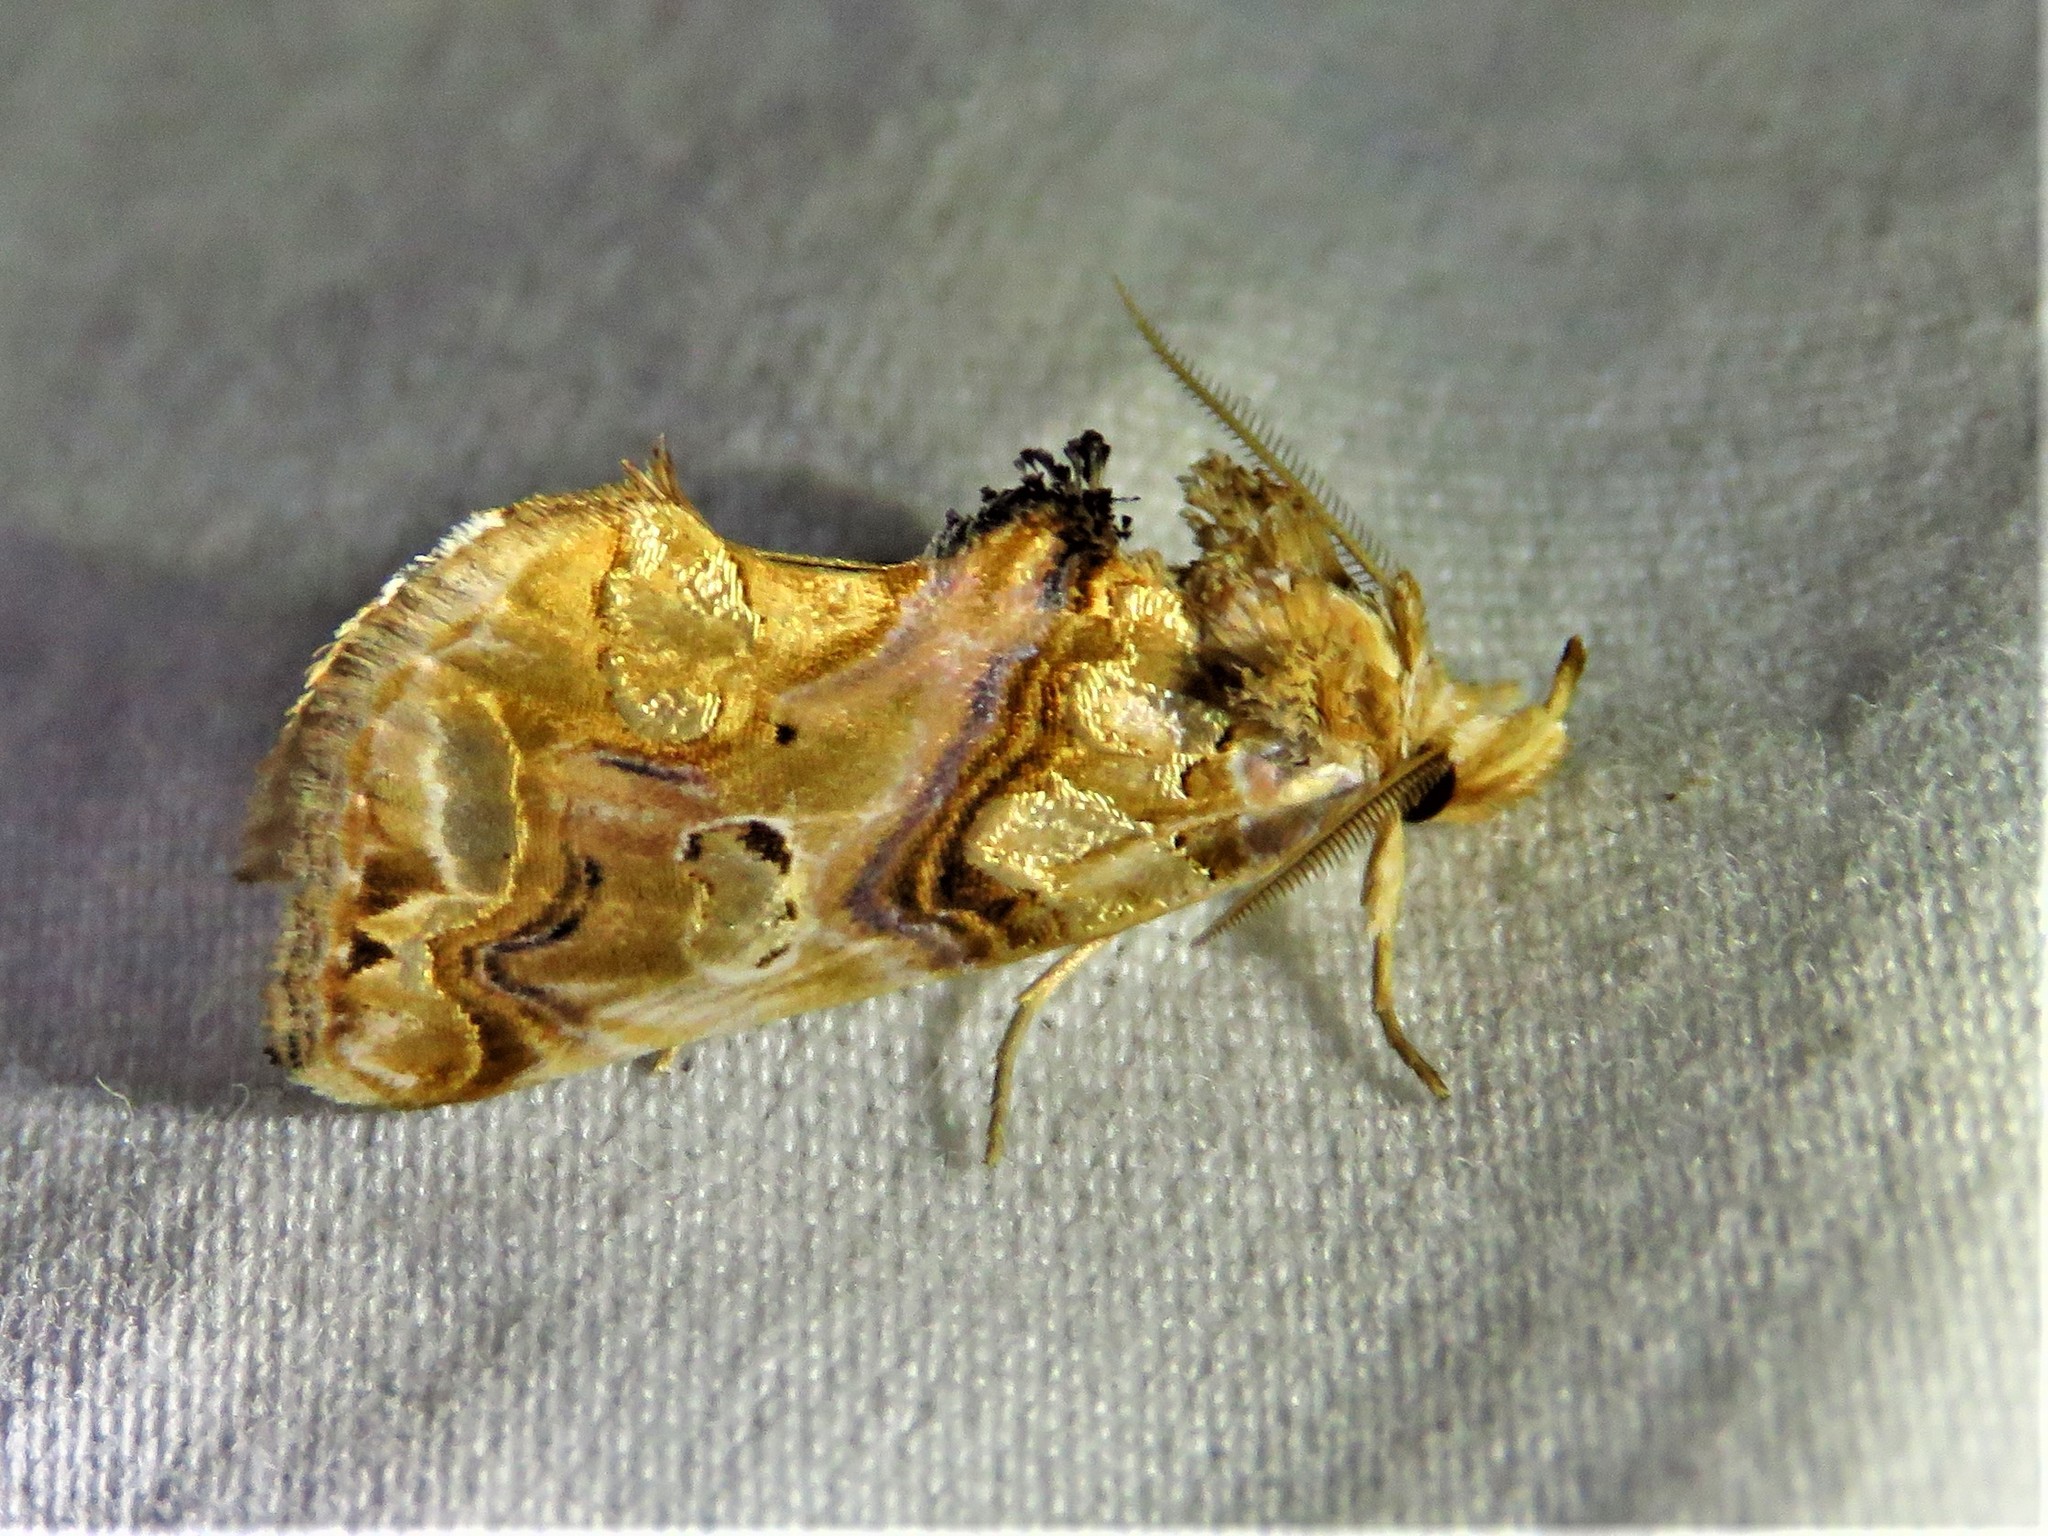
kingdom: Animalia
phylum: Arthropoda
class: Insecta
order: Lepidoptera
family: Erebidae
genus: Plusiodonta
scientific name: Plusiodonta compressipalpis
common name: Moonseed moth
